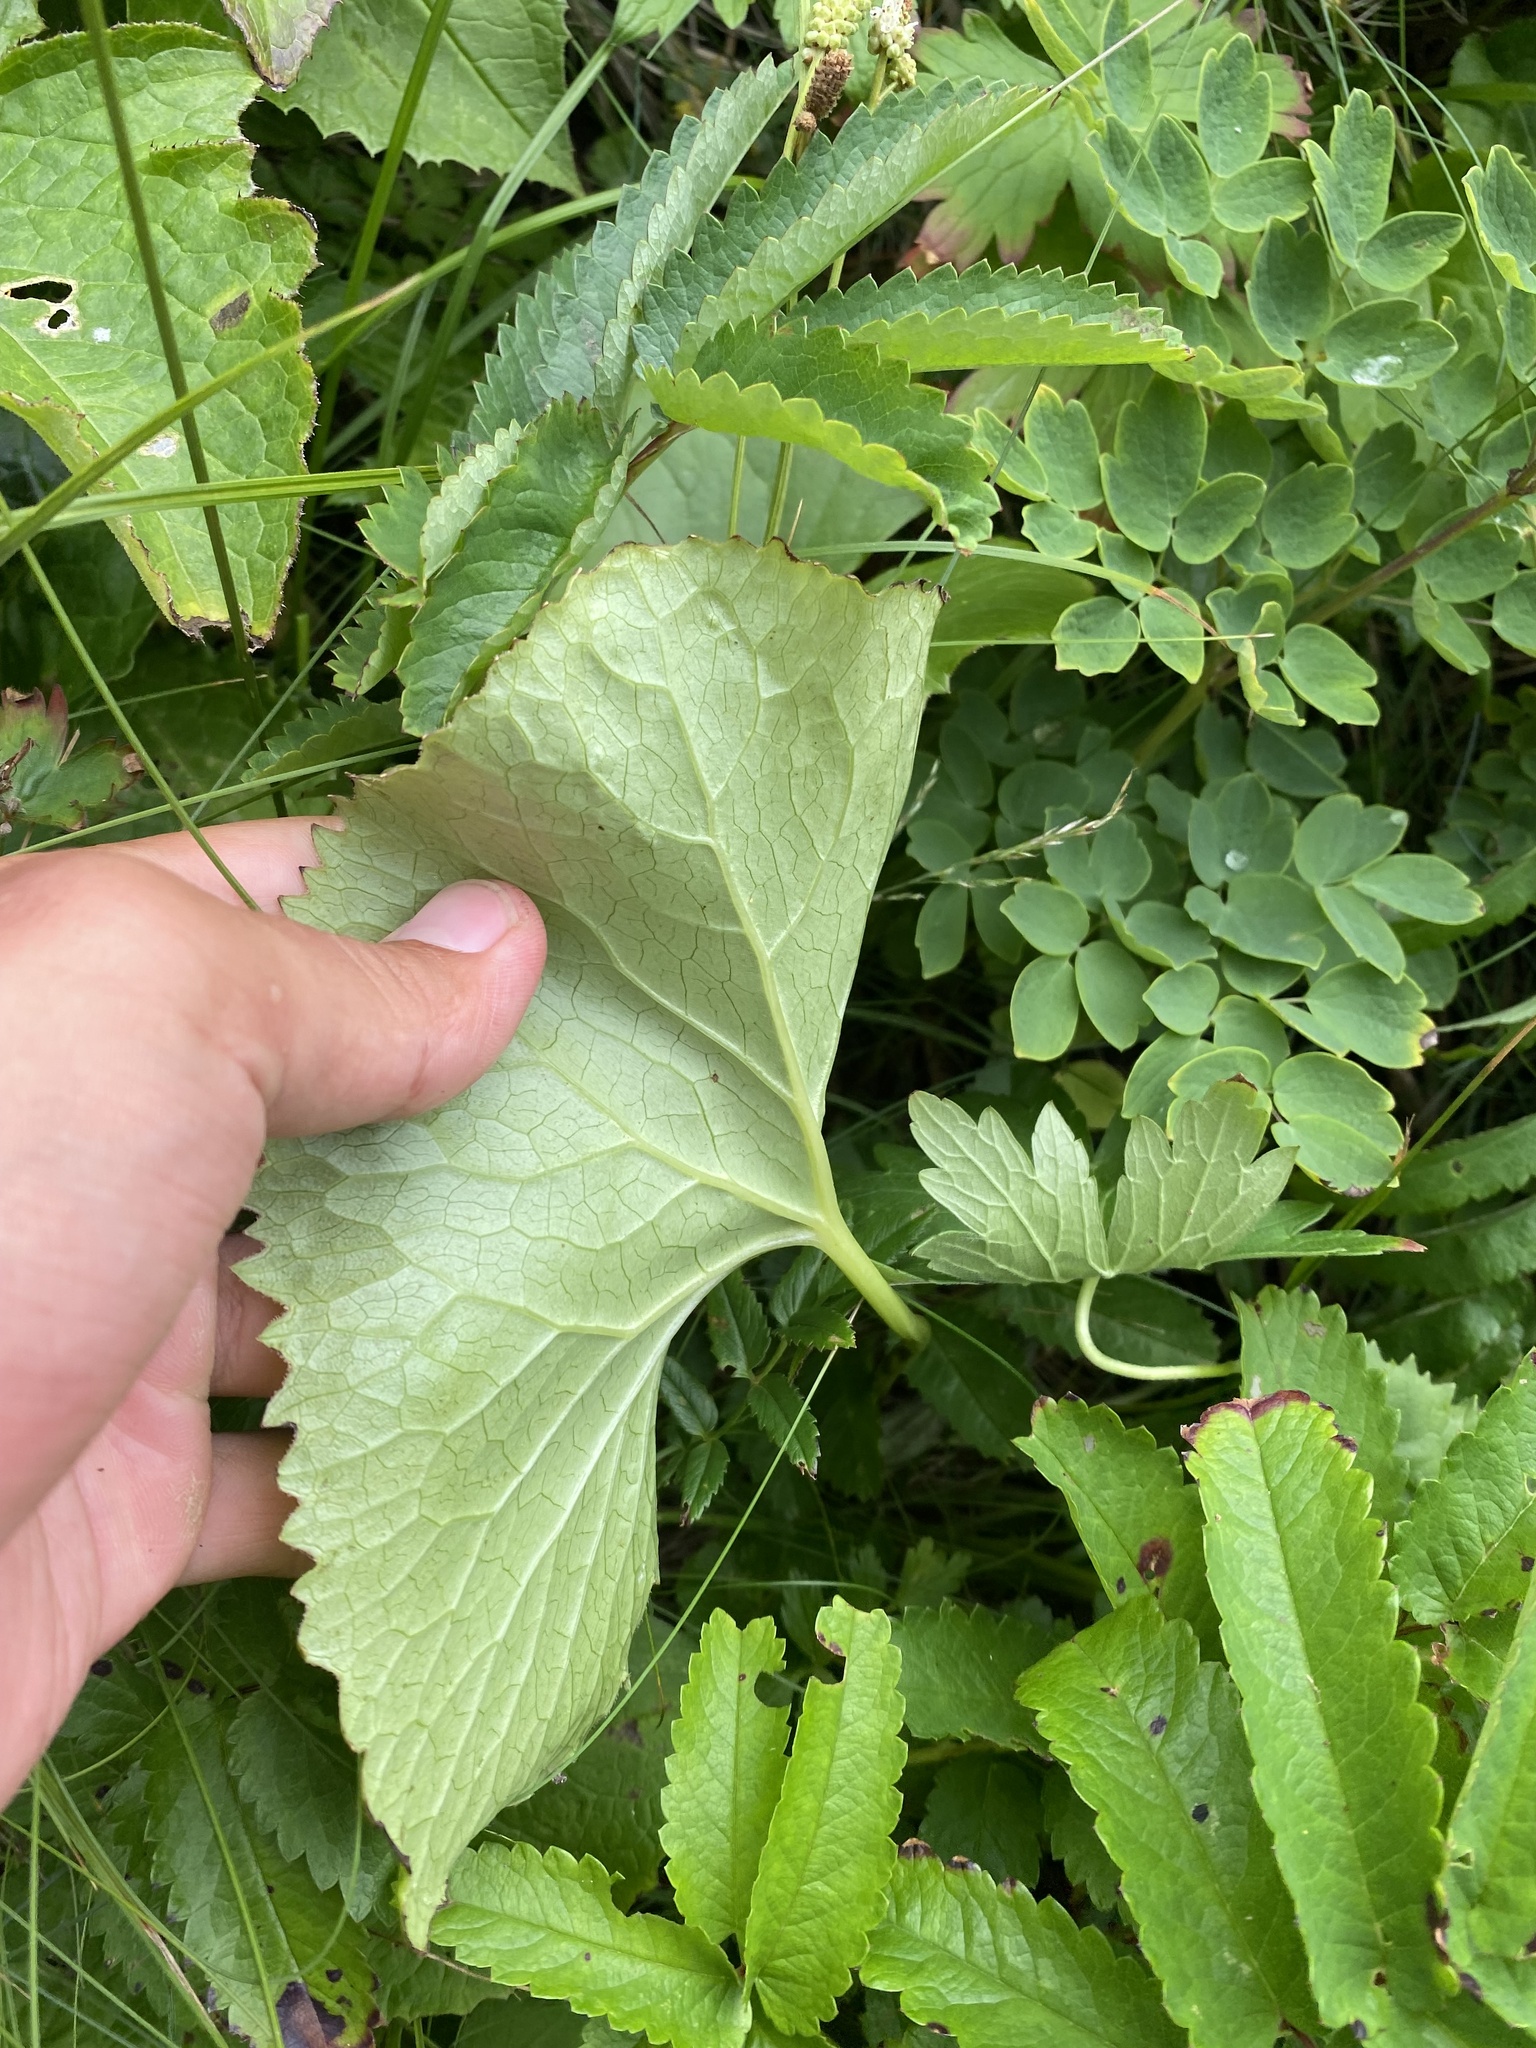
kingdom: Plantae
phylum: Tracheophyta
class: Magnoliopsida
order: Ranunculales
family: Ranunculaceae
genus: Caltha
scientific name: Caltha palustris
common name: Marsh marigold
